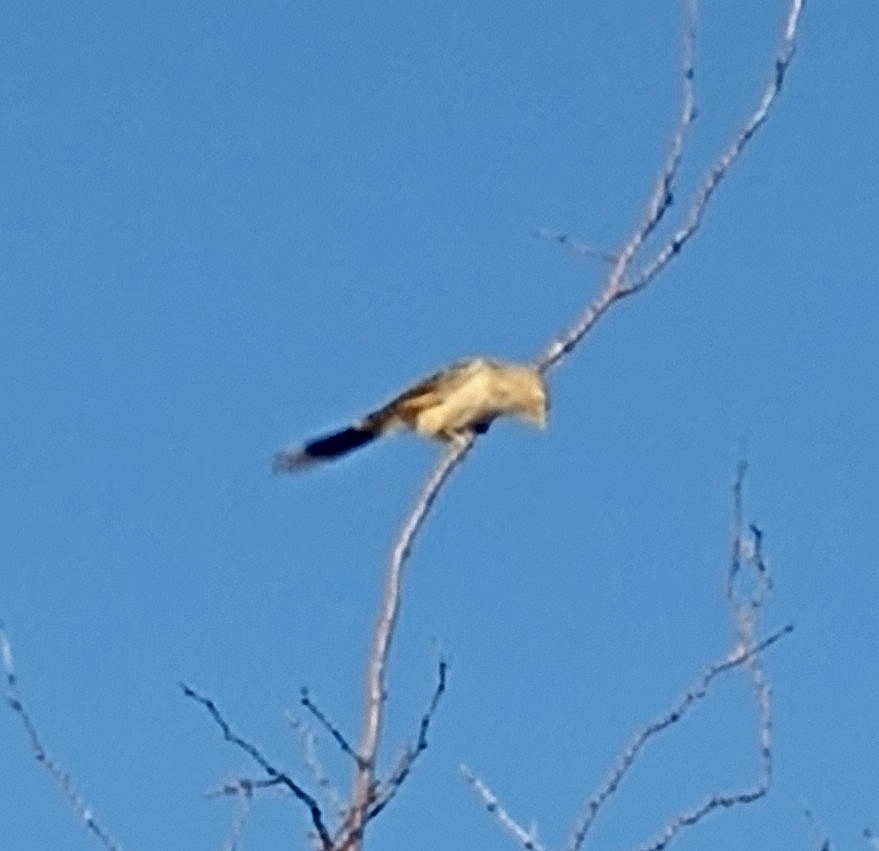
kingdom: Animalia
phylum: Chordata
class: Aves
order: Cuculiformes
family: Cuculidae
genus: Guira
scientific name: Guira guira
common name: Guira cuckoo
